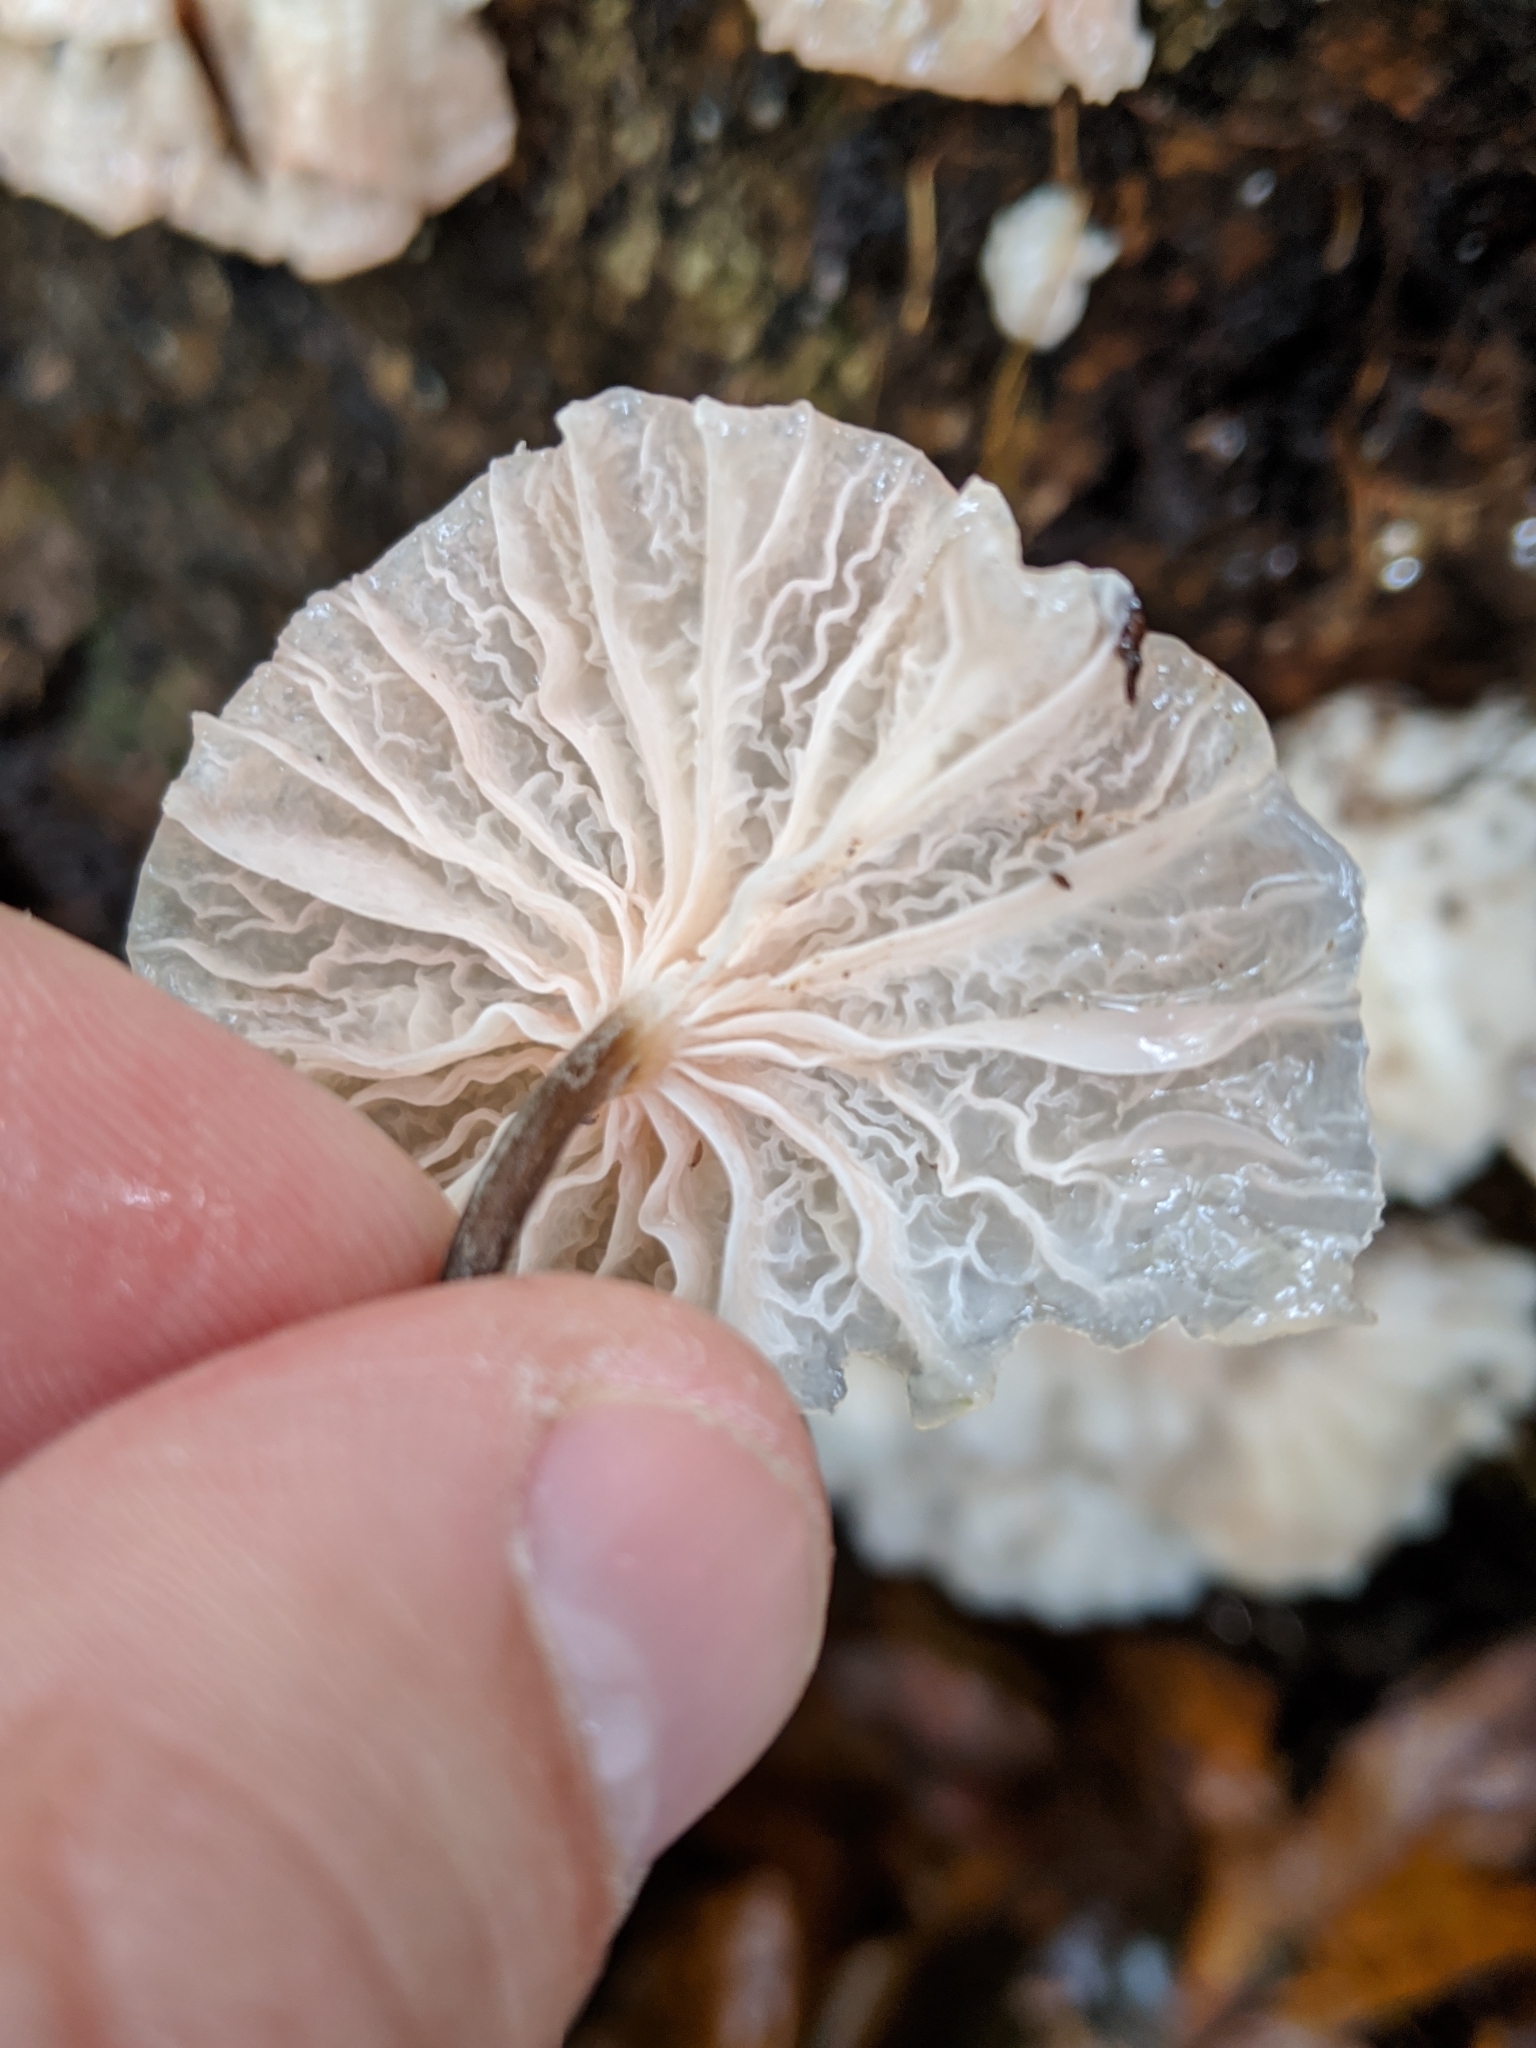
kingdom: Fungi
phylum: Basidiomycota
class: Agaricomycetes
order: Agaricales
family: Omphalotaceae
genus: Marasmiellus
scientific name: Marasmiellus candidus
